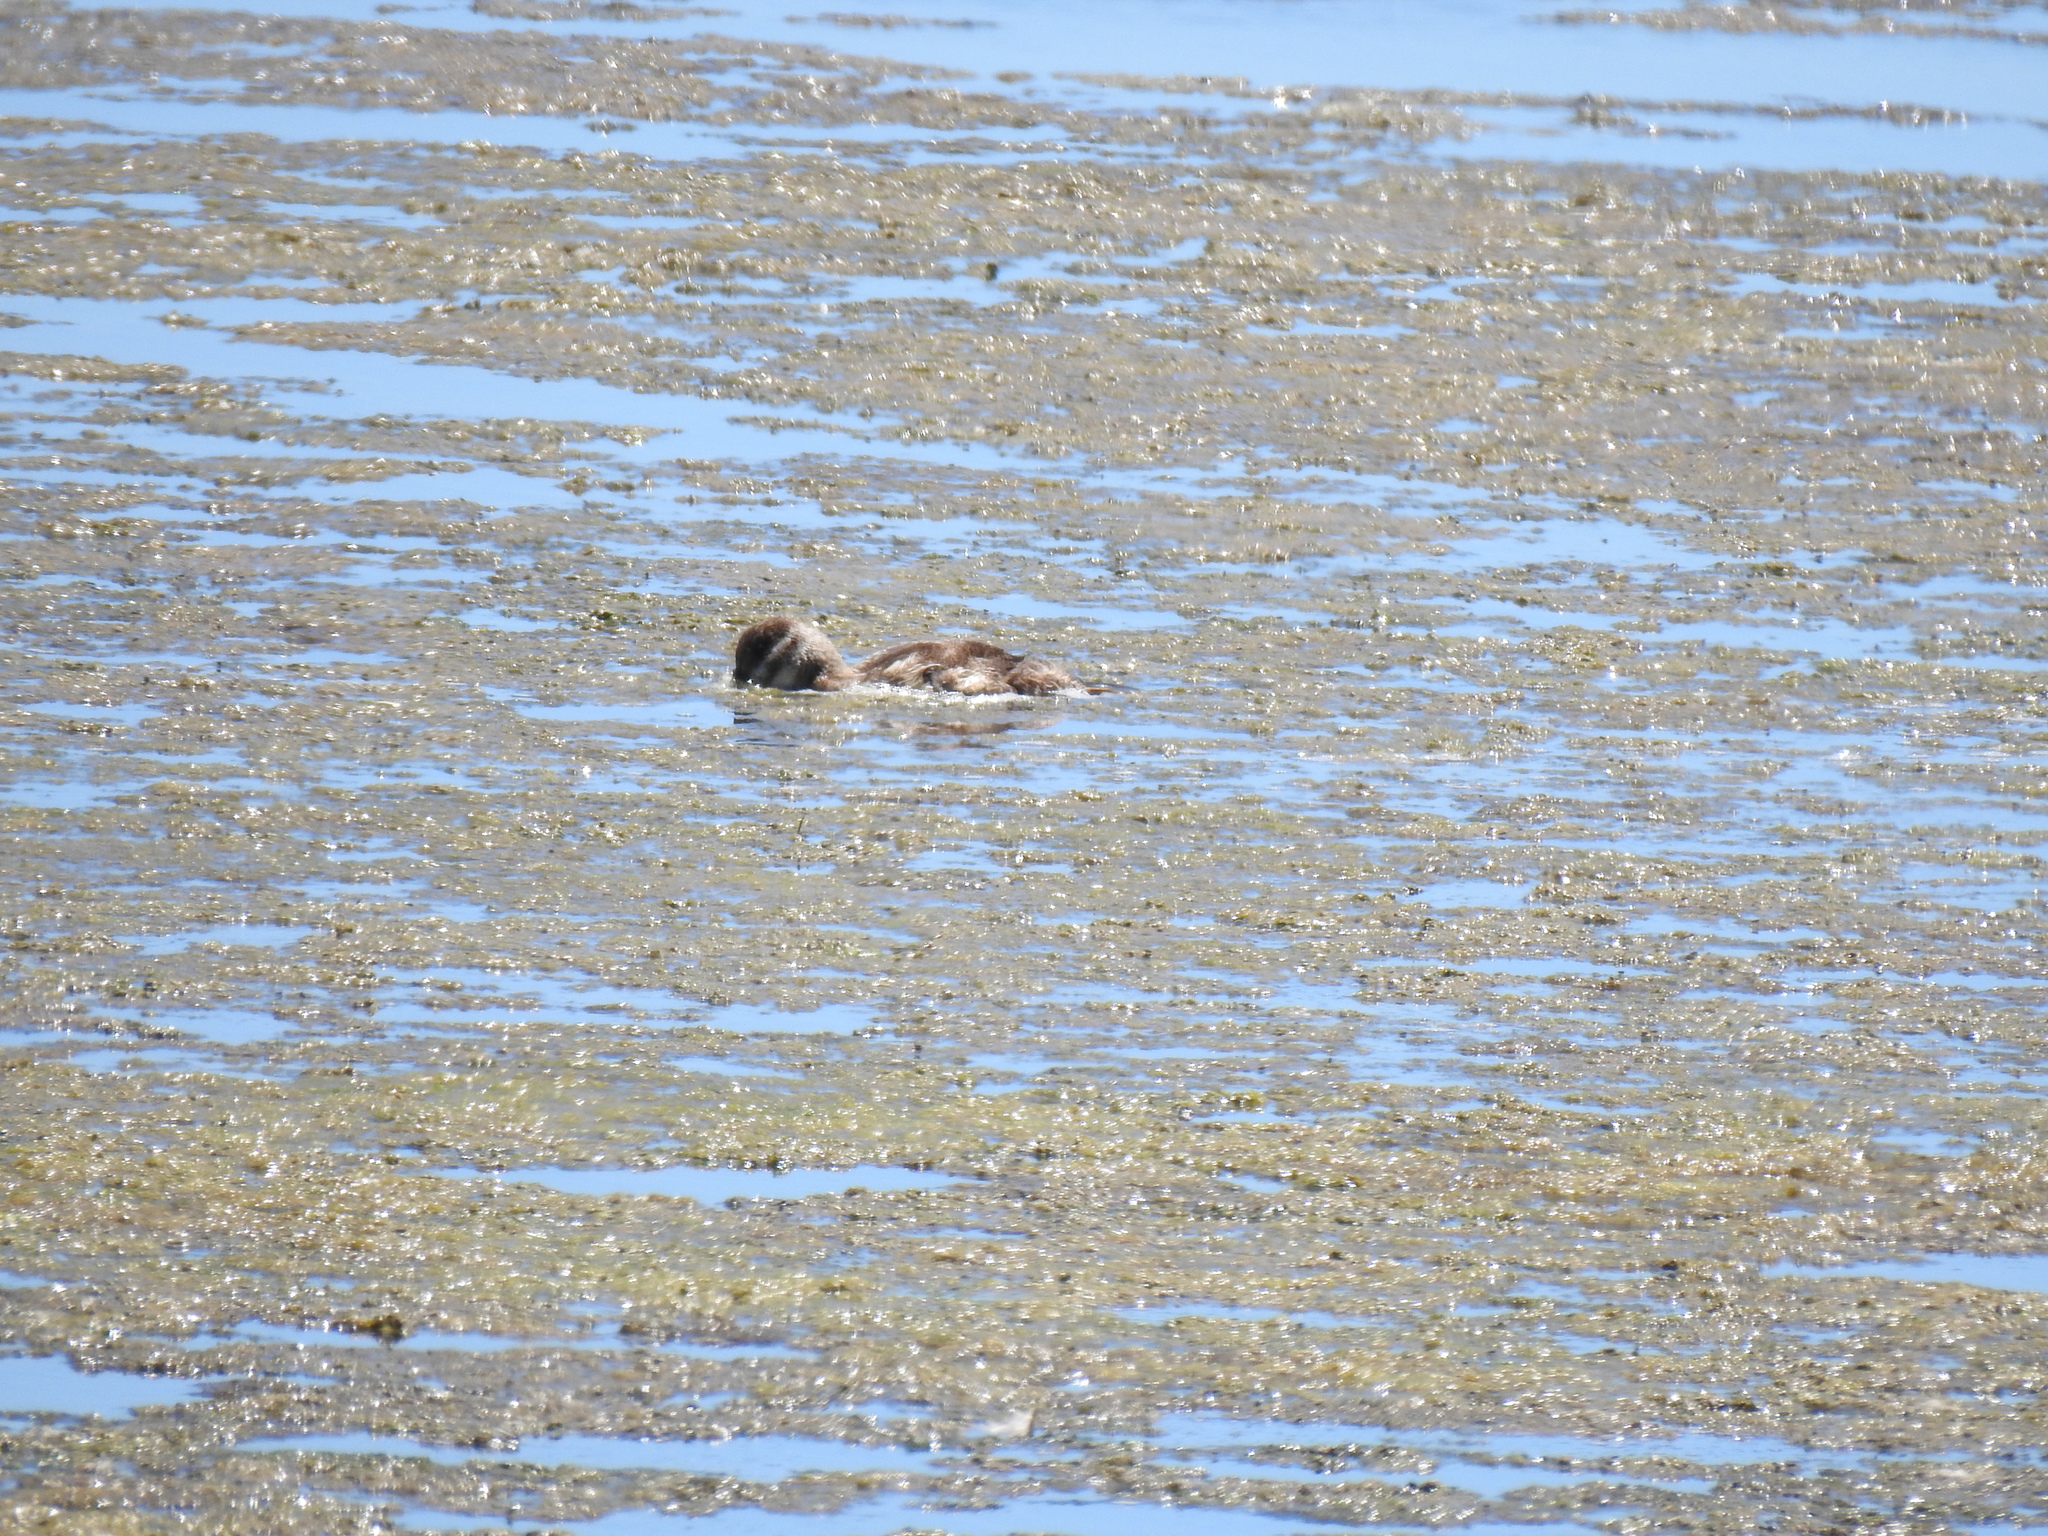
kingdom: Animalia
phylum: Chordata
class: Aves
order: Anseriformes
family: Anatidae
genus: Oxyura
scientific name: Oxyura jamaicensis
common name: Ruddy duck
